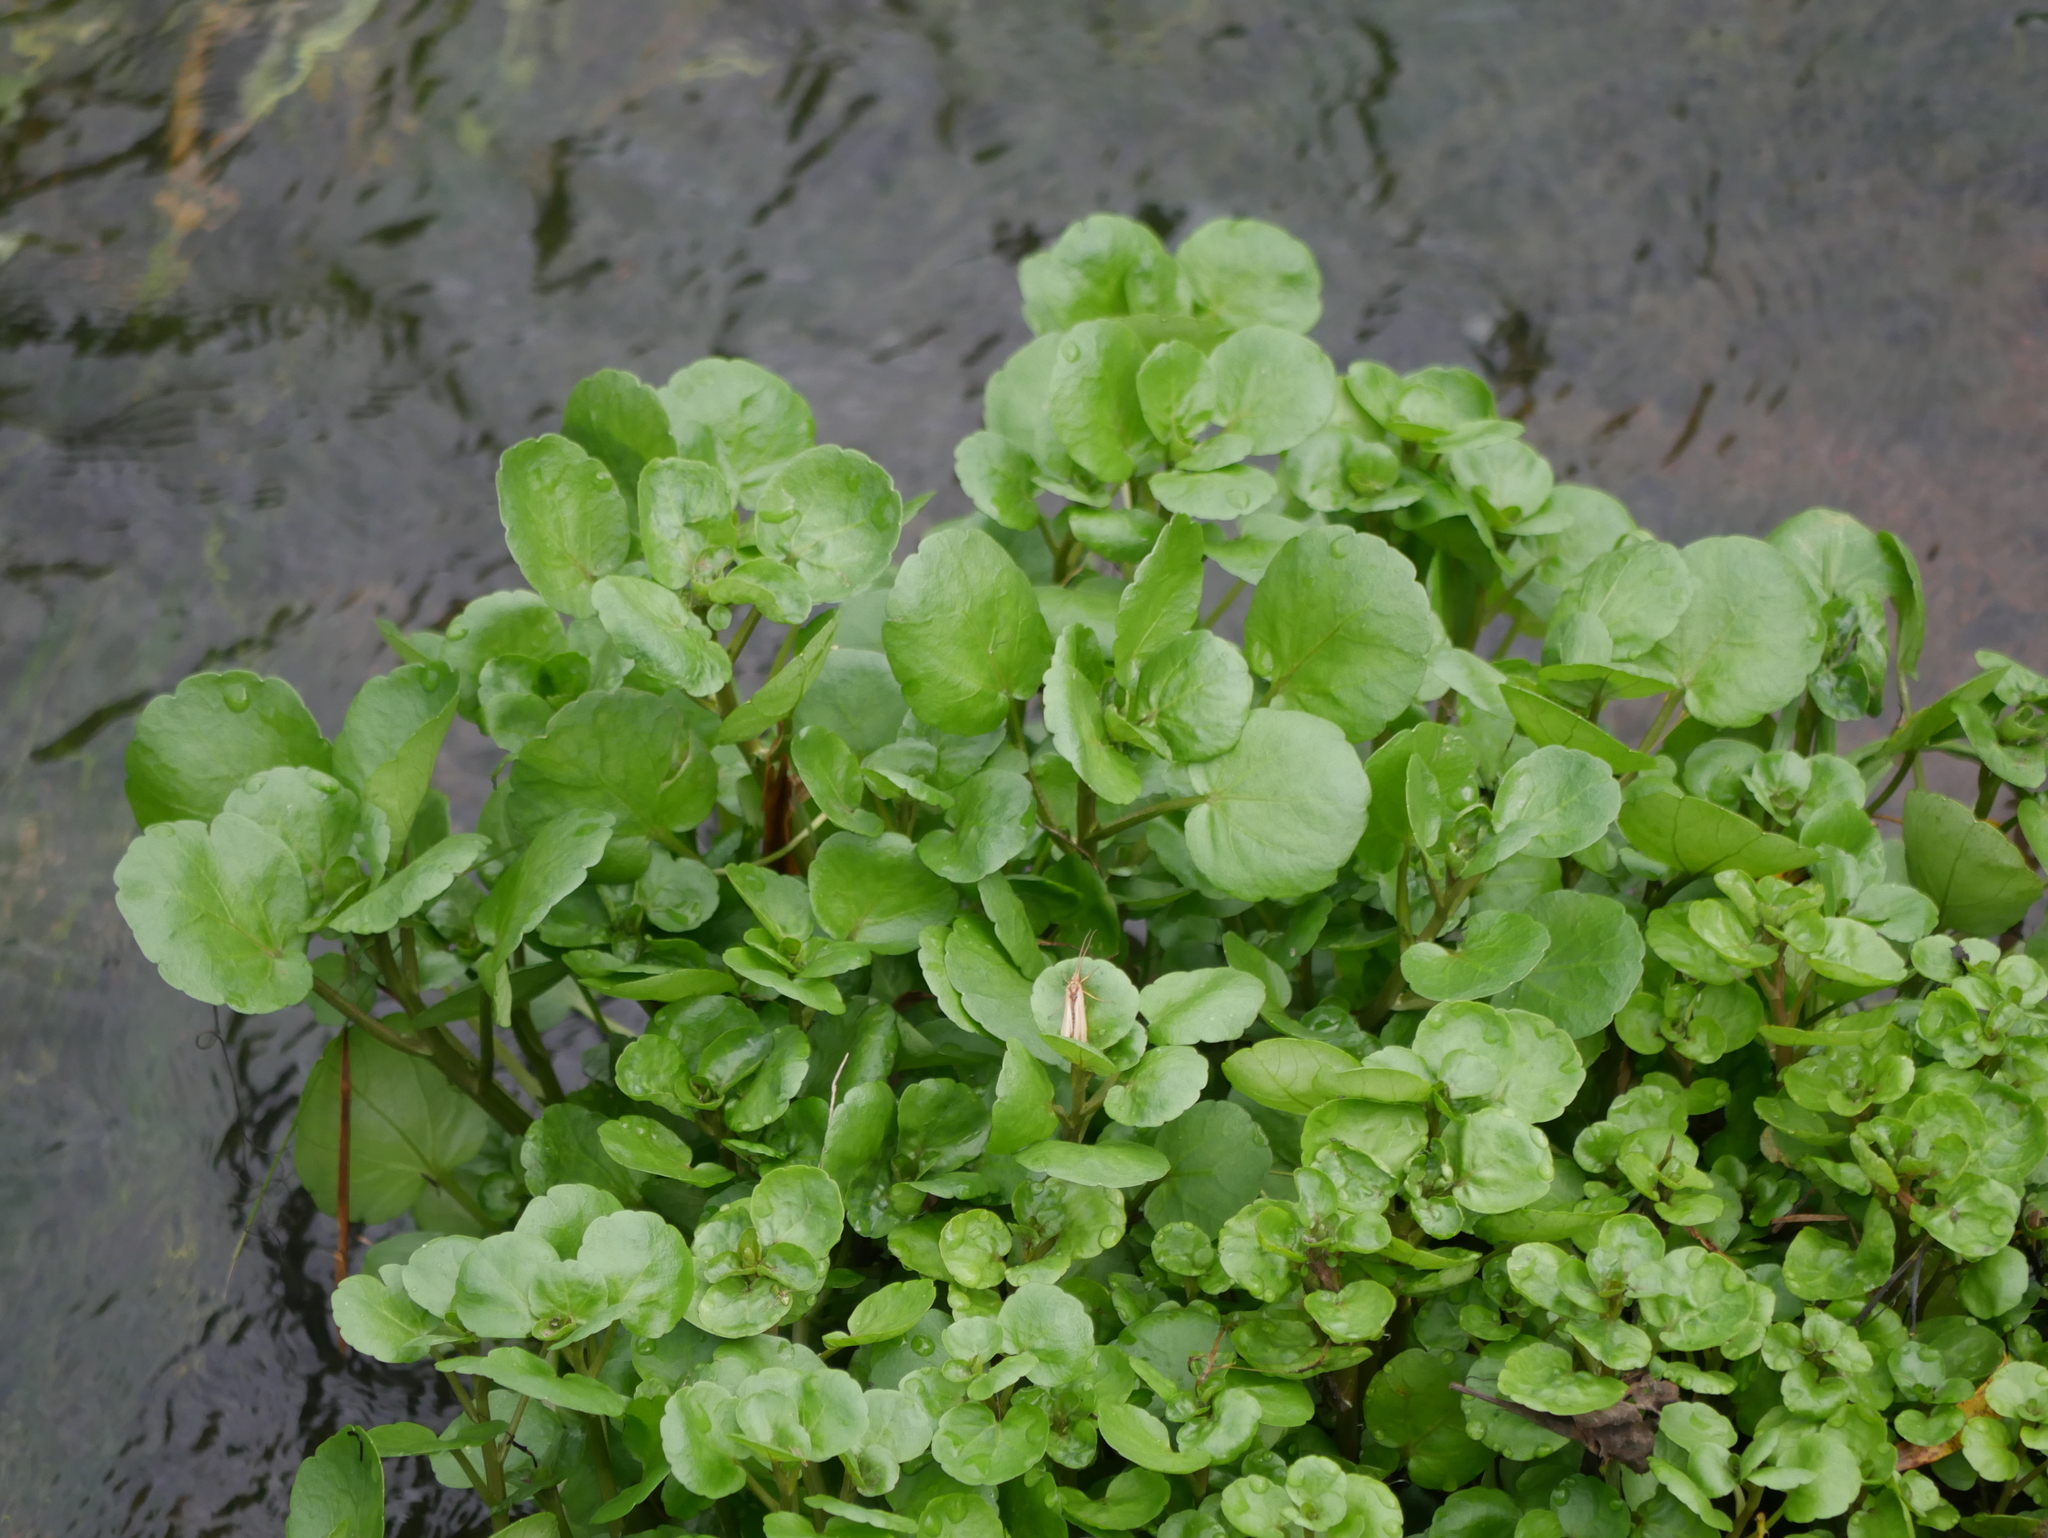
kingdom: Plantae
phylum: Tracheophyta
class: Magnoliopsida
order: Brassicales
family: Brassicaceae
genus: Nasturtium
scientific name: Nasturtium officinale
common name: Watercress
